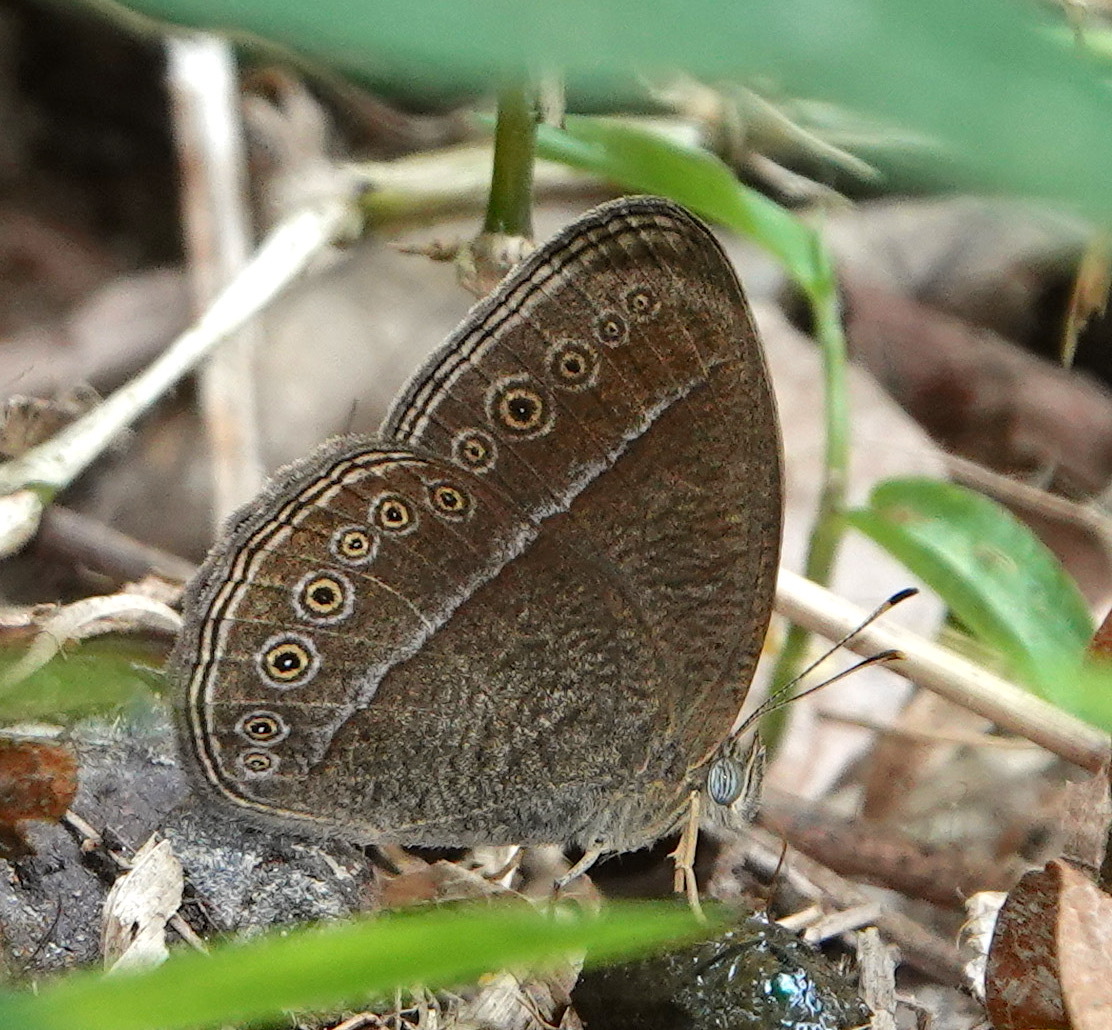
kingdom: Animalia
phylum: Arthropoda
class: Insecta
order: Lepidoptera
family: Nymphalidae
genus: Mycalesis
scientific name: Mycalesis Telinga janardana
